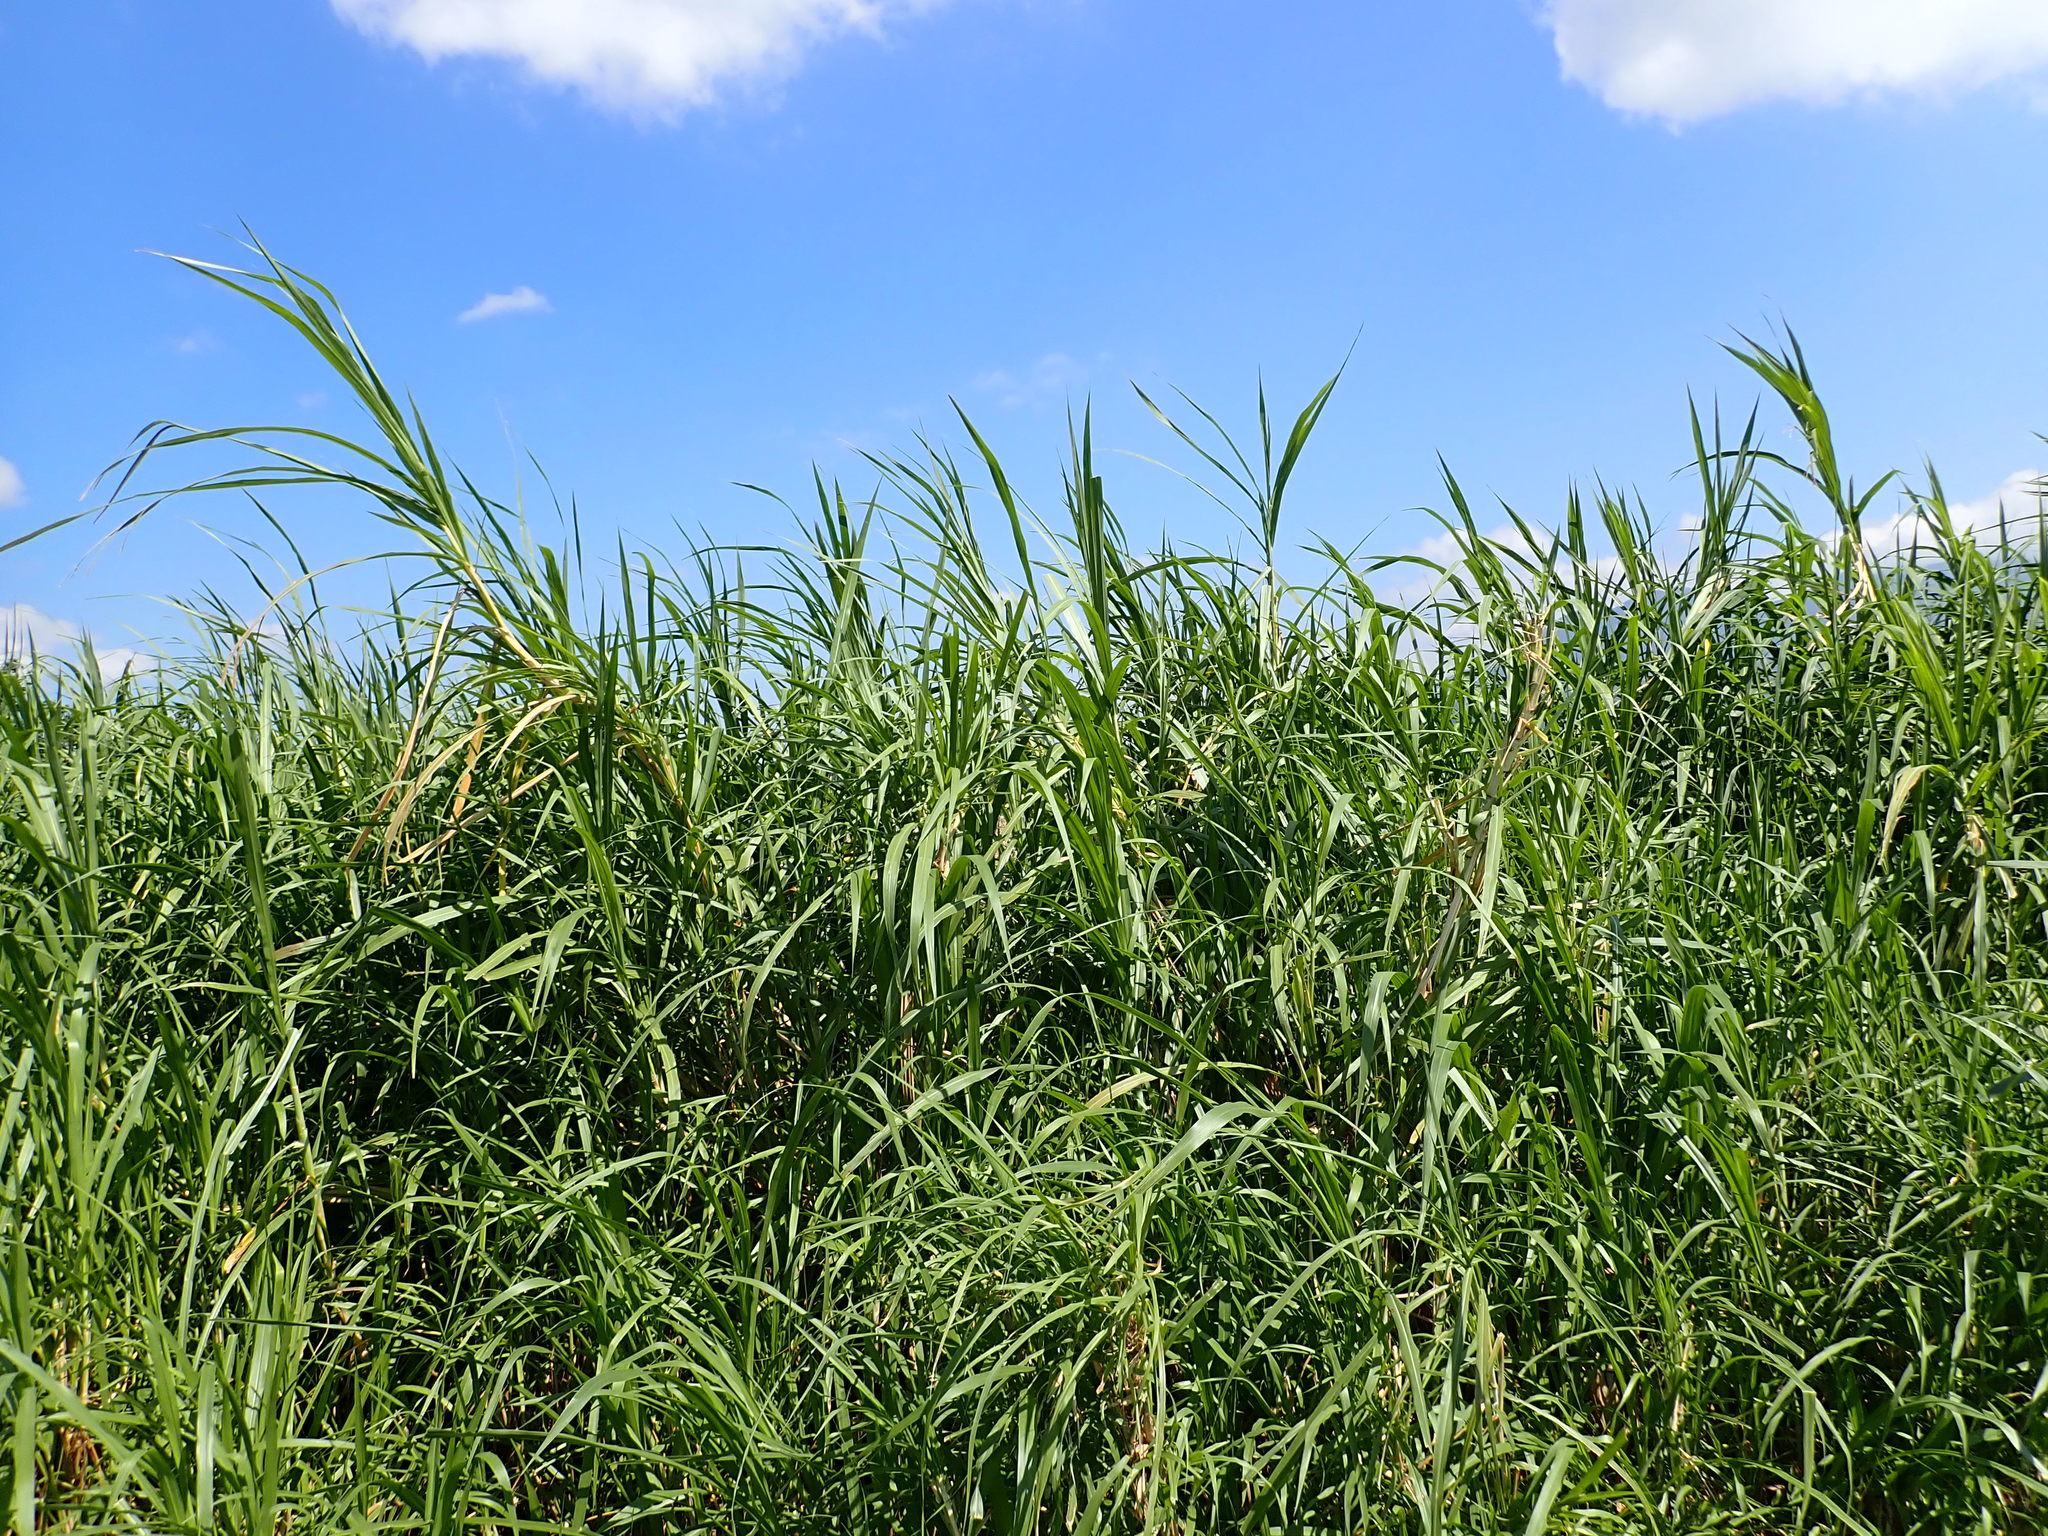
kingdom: Plantae
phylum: Tracheophyta
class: Liliopsida
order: Poales
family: Poaceae
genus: Cenchrus
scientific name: Cenchrus purpureus
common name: Elephant grass
